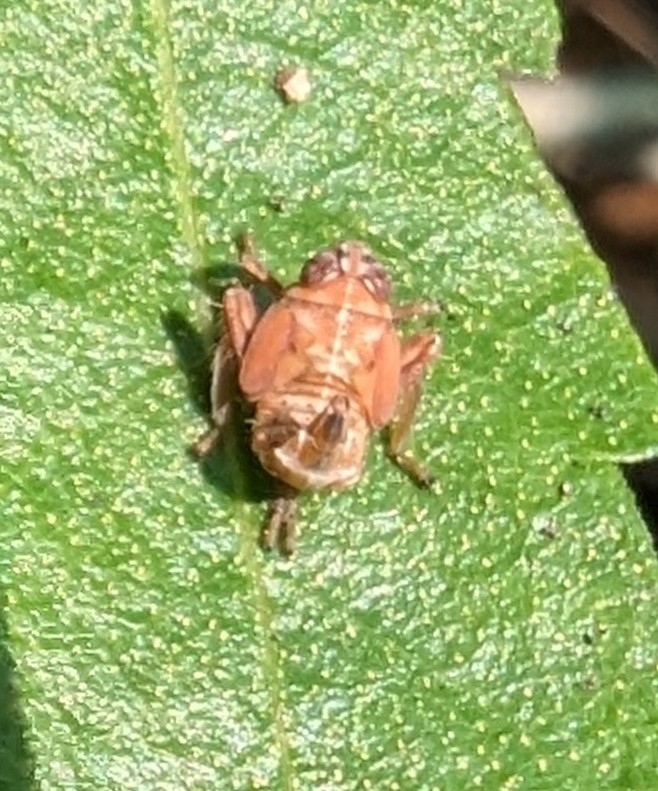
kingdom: Animalia
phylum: Arthropoda
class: Insecta
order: Hemiptera
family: Cicadellidae
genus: Jikradia
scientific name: Jikradia olitoria
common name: Coppery leafhopper
